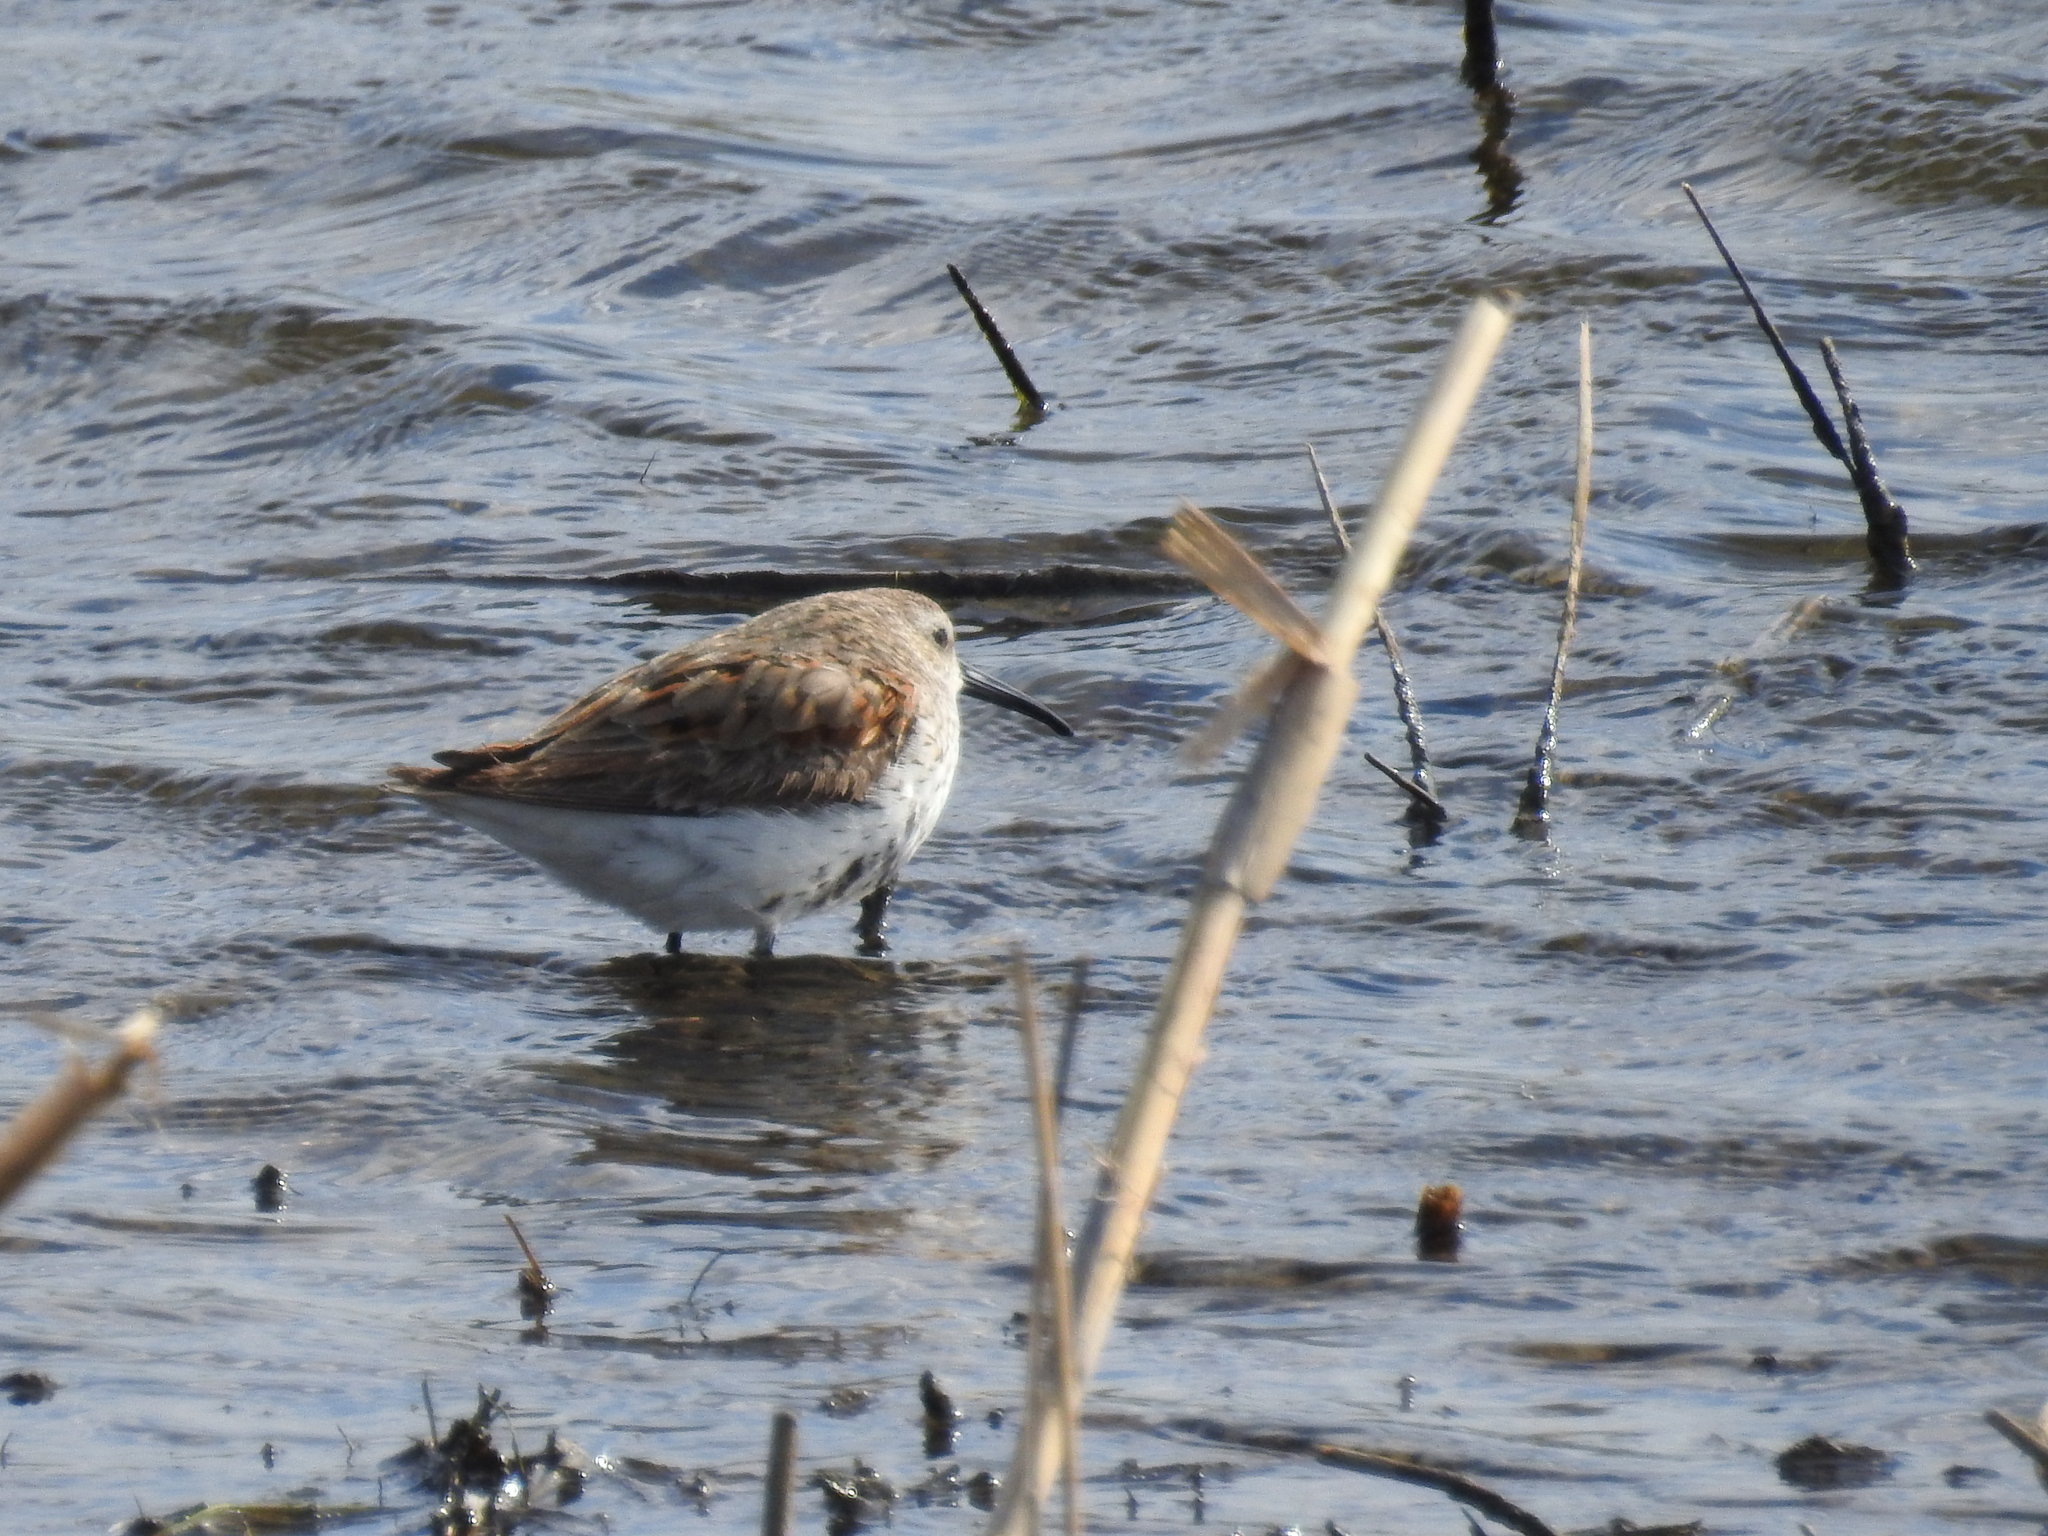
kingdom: Animalia
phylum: Chordata
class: Aves
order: Charadriiformes
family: Scolopacidae
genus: Calidris
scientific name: Calidris alpina
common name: Dunlin
